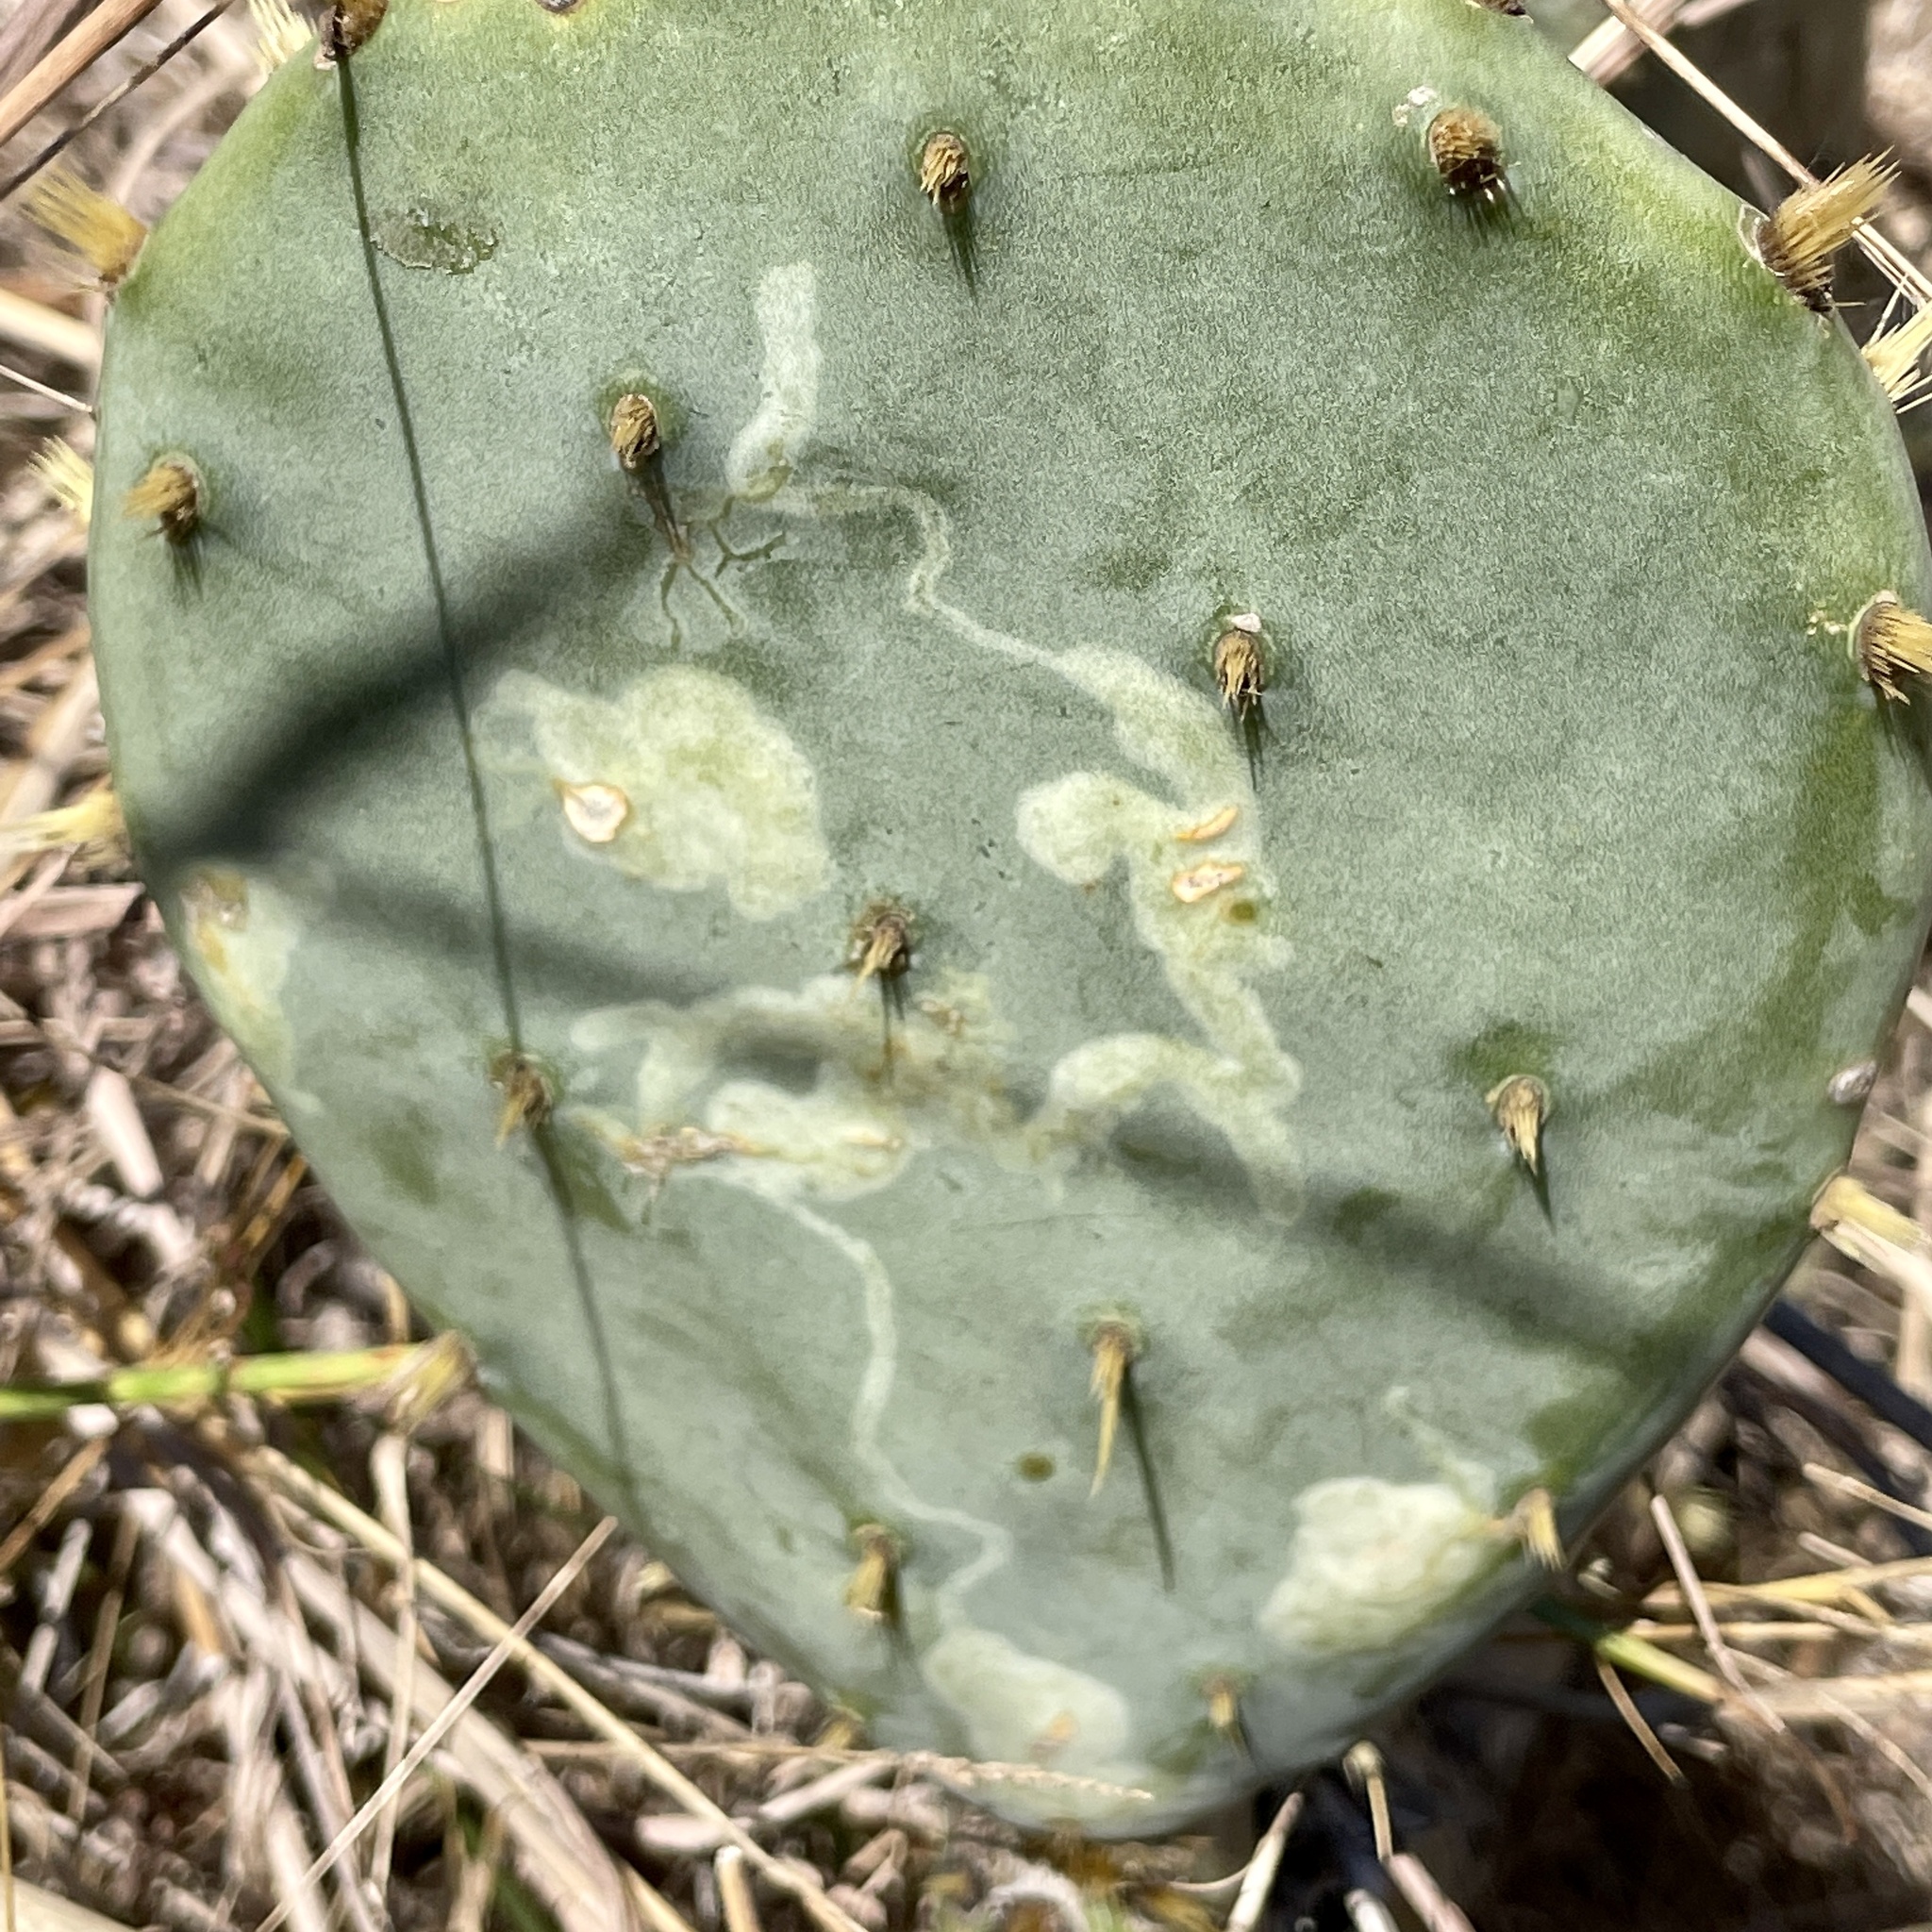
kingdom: Animalia
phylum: Arthropoda
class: Insecta
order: Lepidoptera
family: Gracillariidae
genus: Marmara
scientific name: Marmara opuntiella
